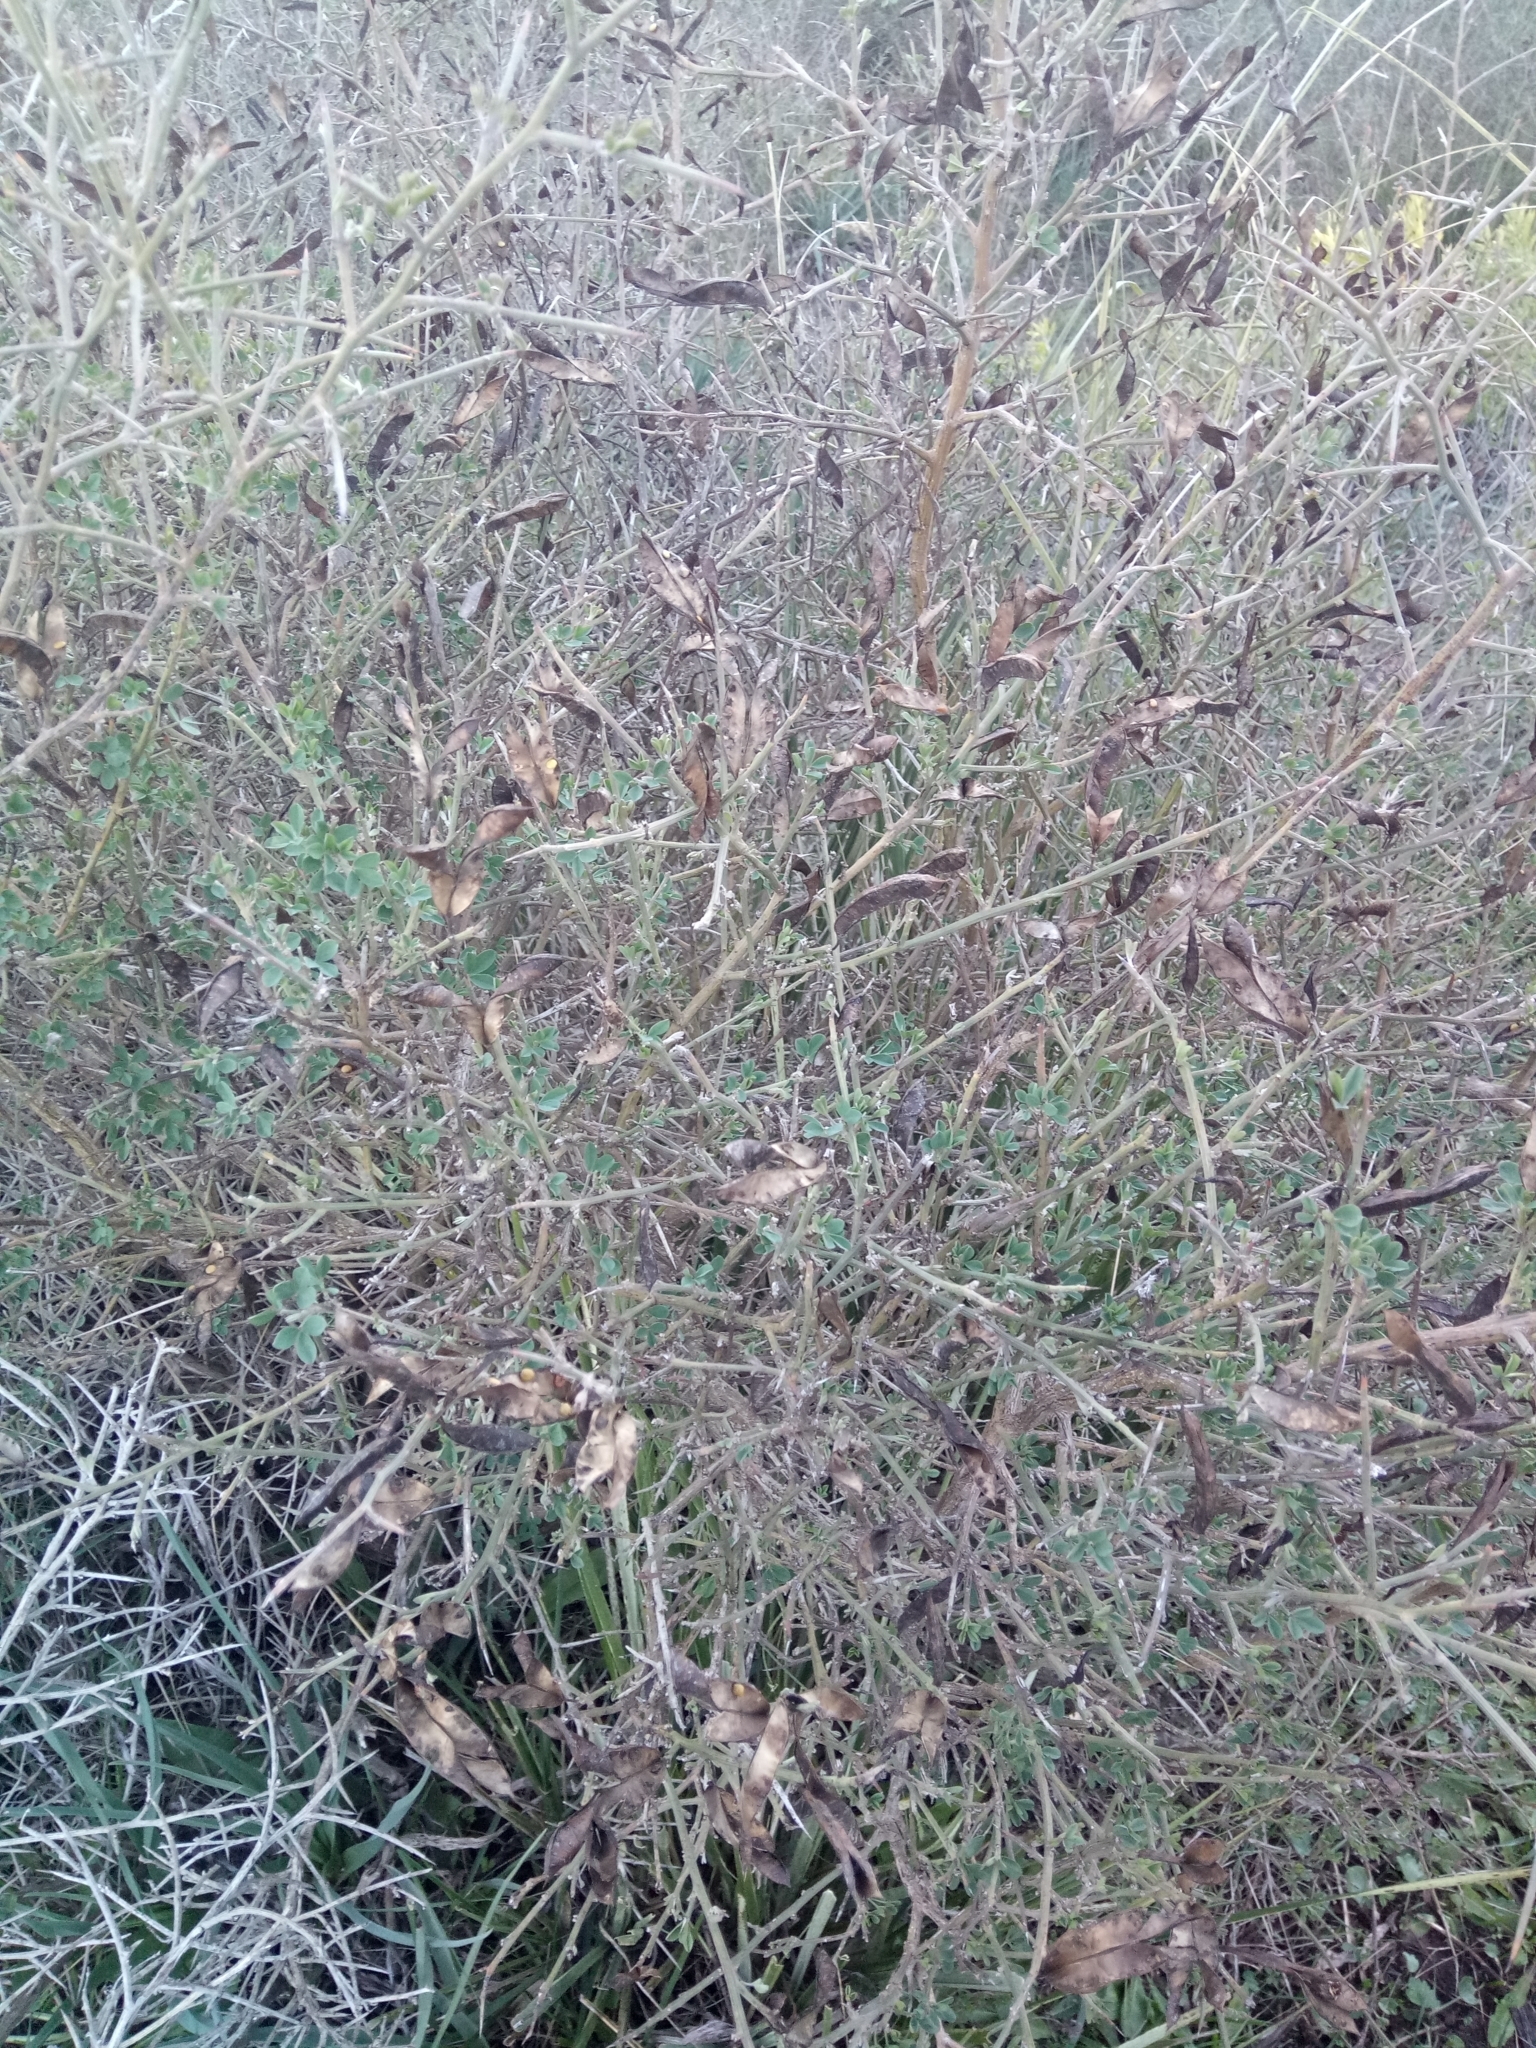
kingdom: Plantae
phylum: Tracheophyta
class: Magnoliopsida
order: Fabales
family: Fabaceae
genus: Calicotome
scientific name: Calicotome spinosa
